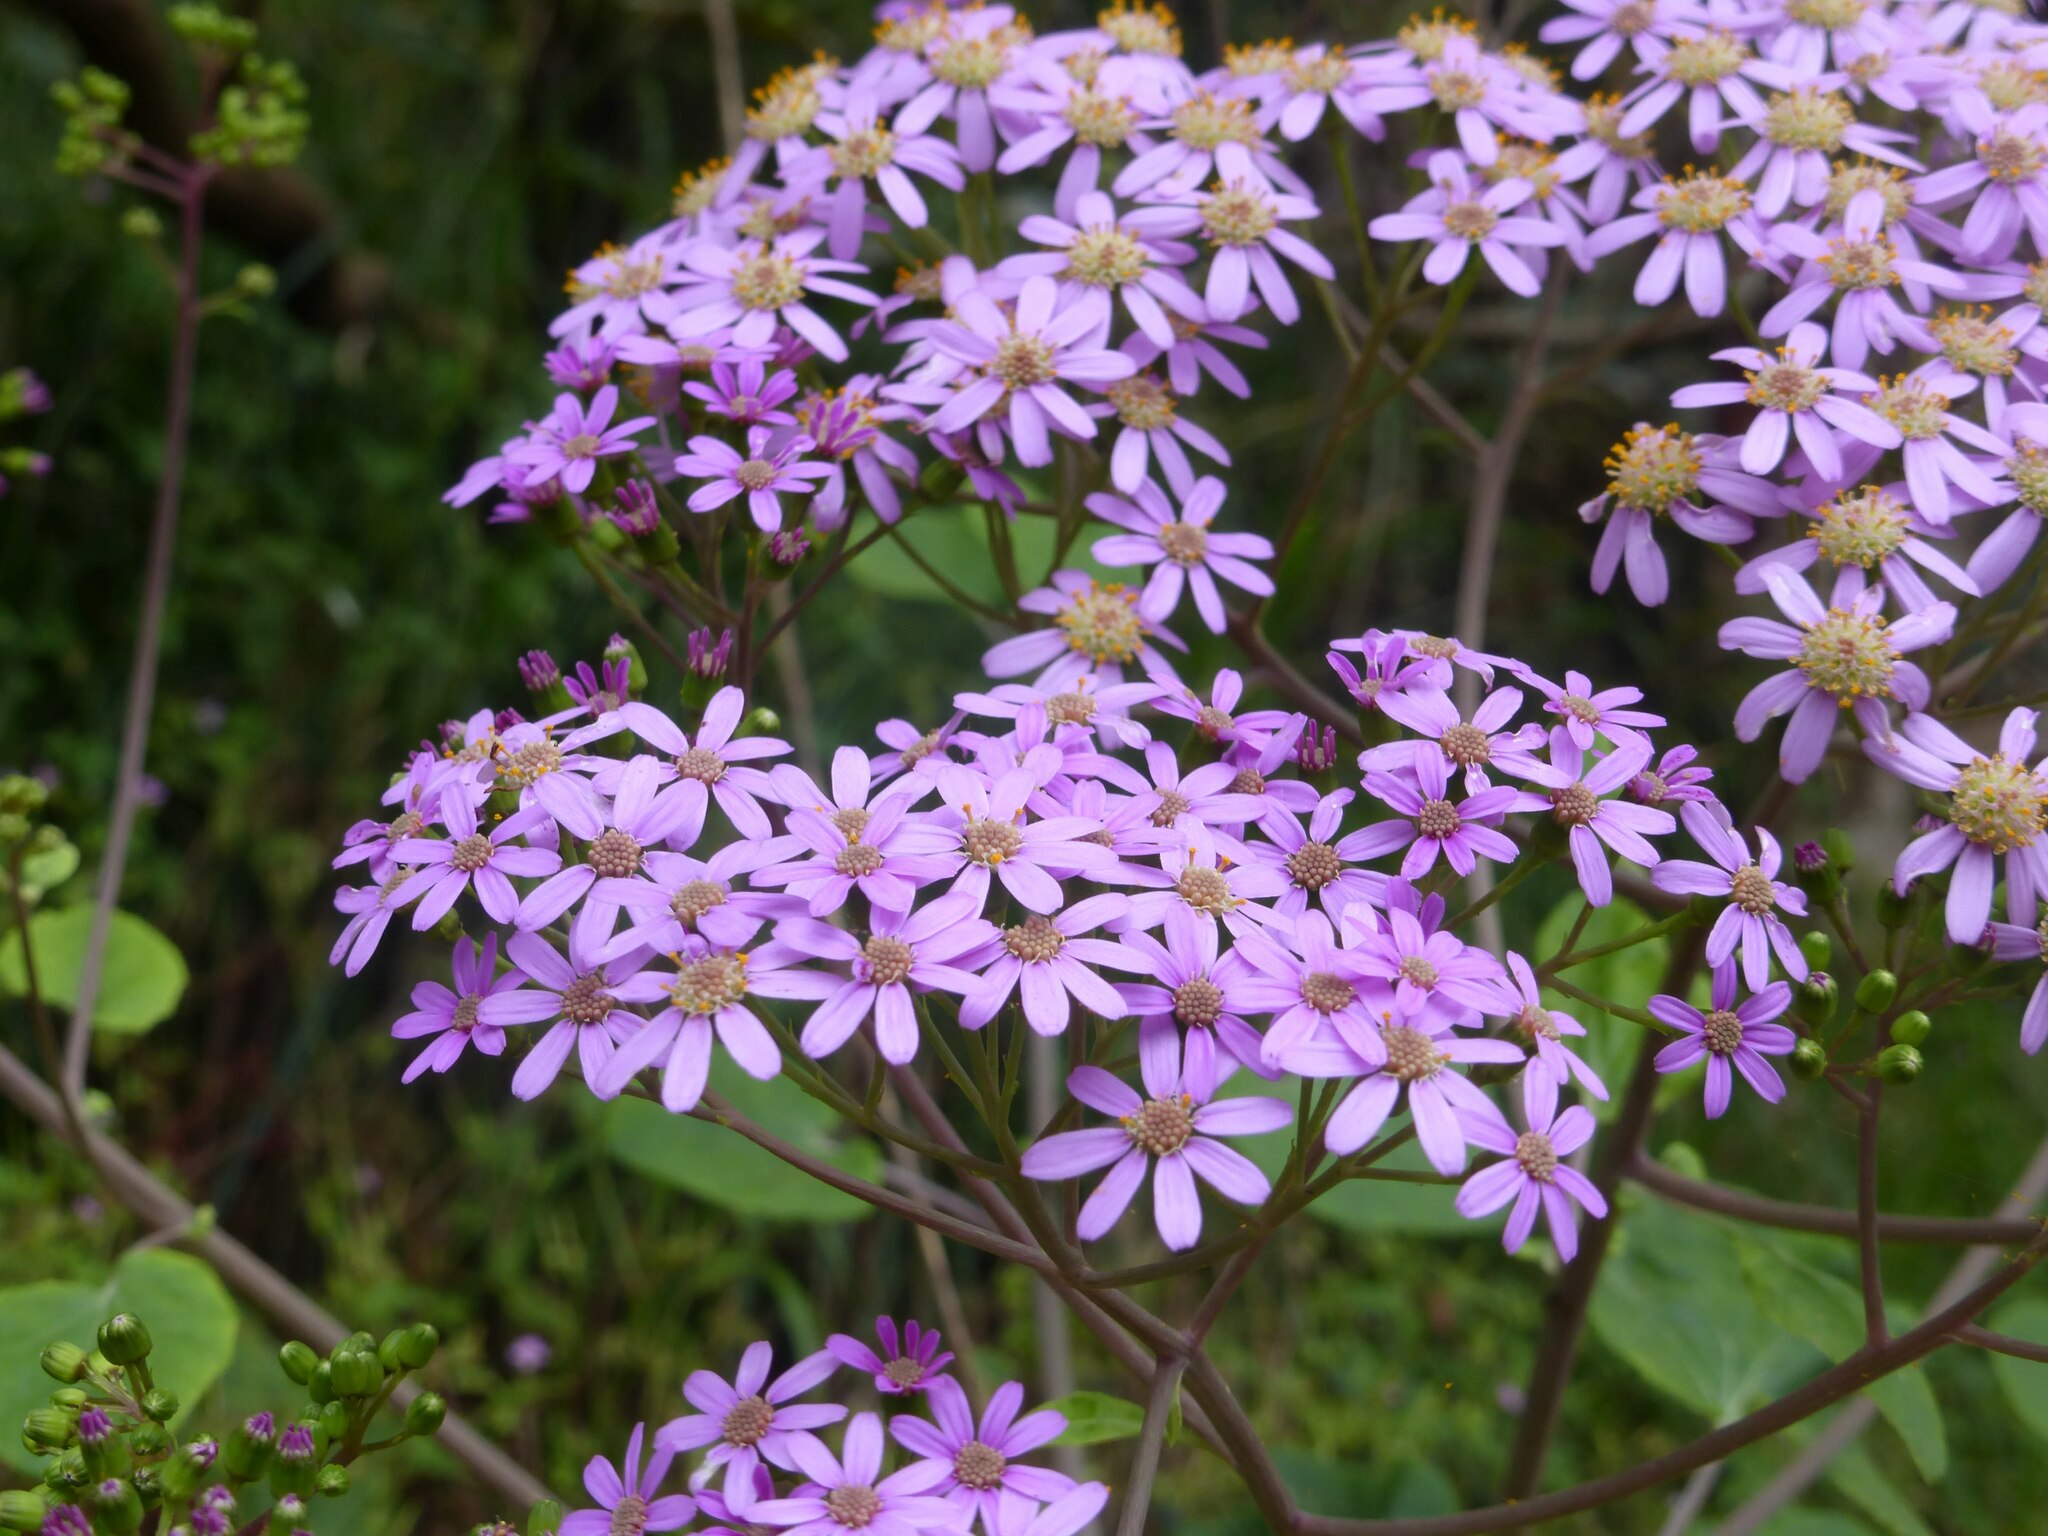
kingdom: Plantae
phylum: Tracheophyta
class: Magnoliopsida
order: Asterales
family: Asteraceae
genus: Pericallis
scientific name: Pericallis malvifolia
